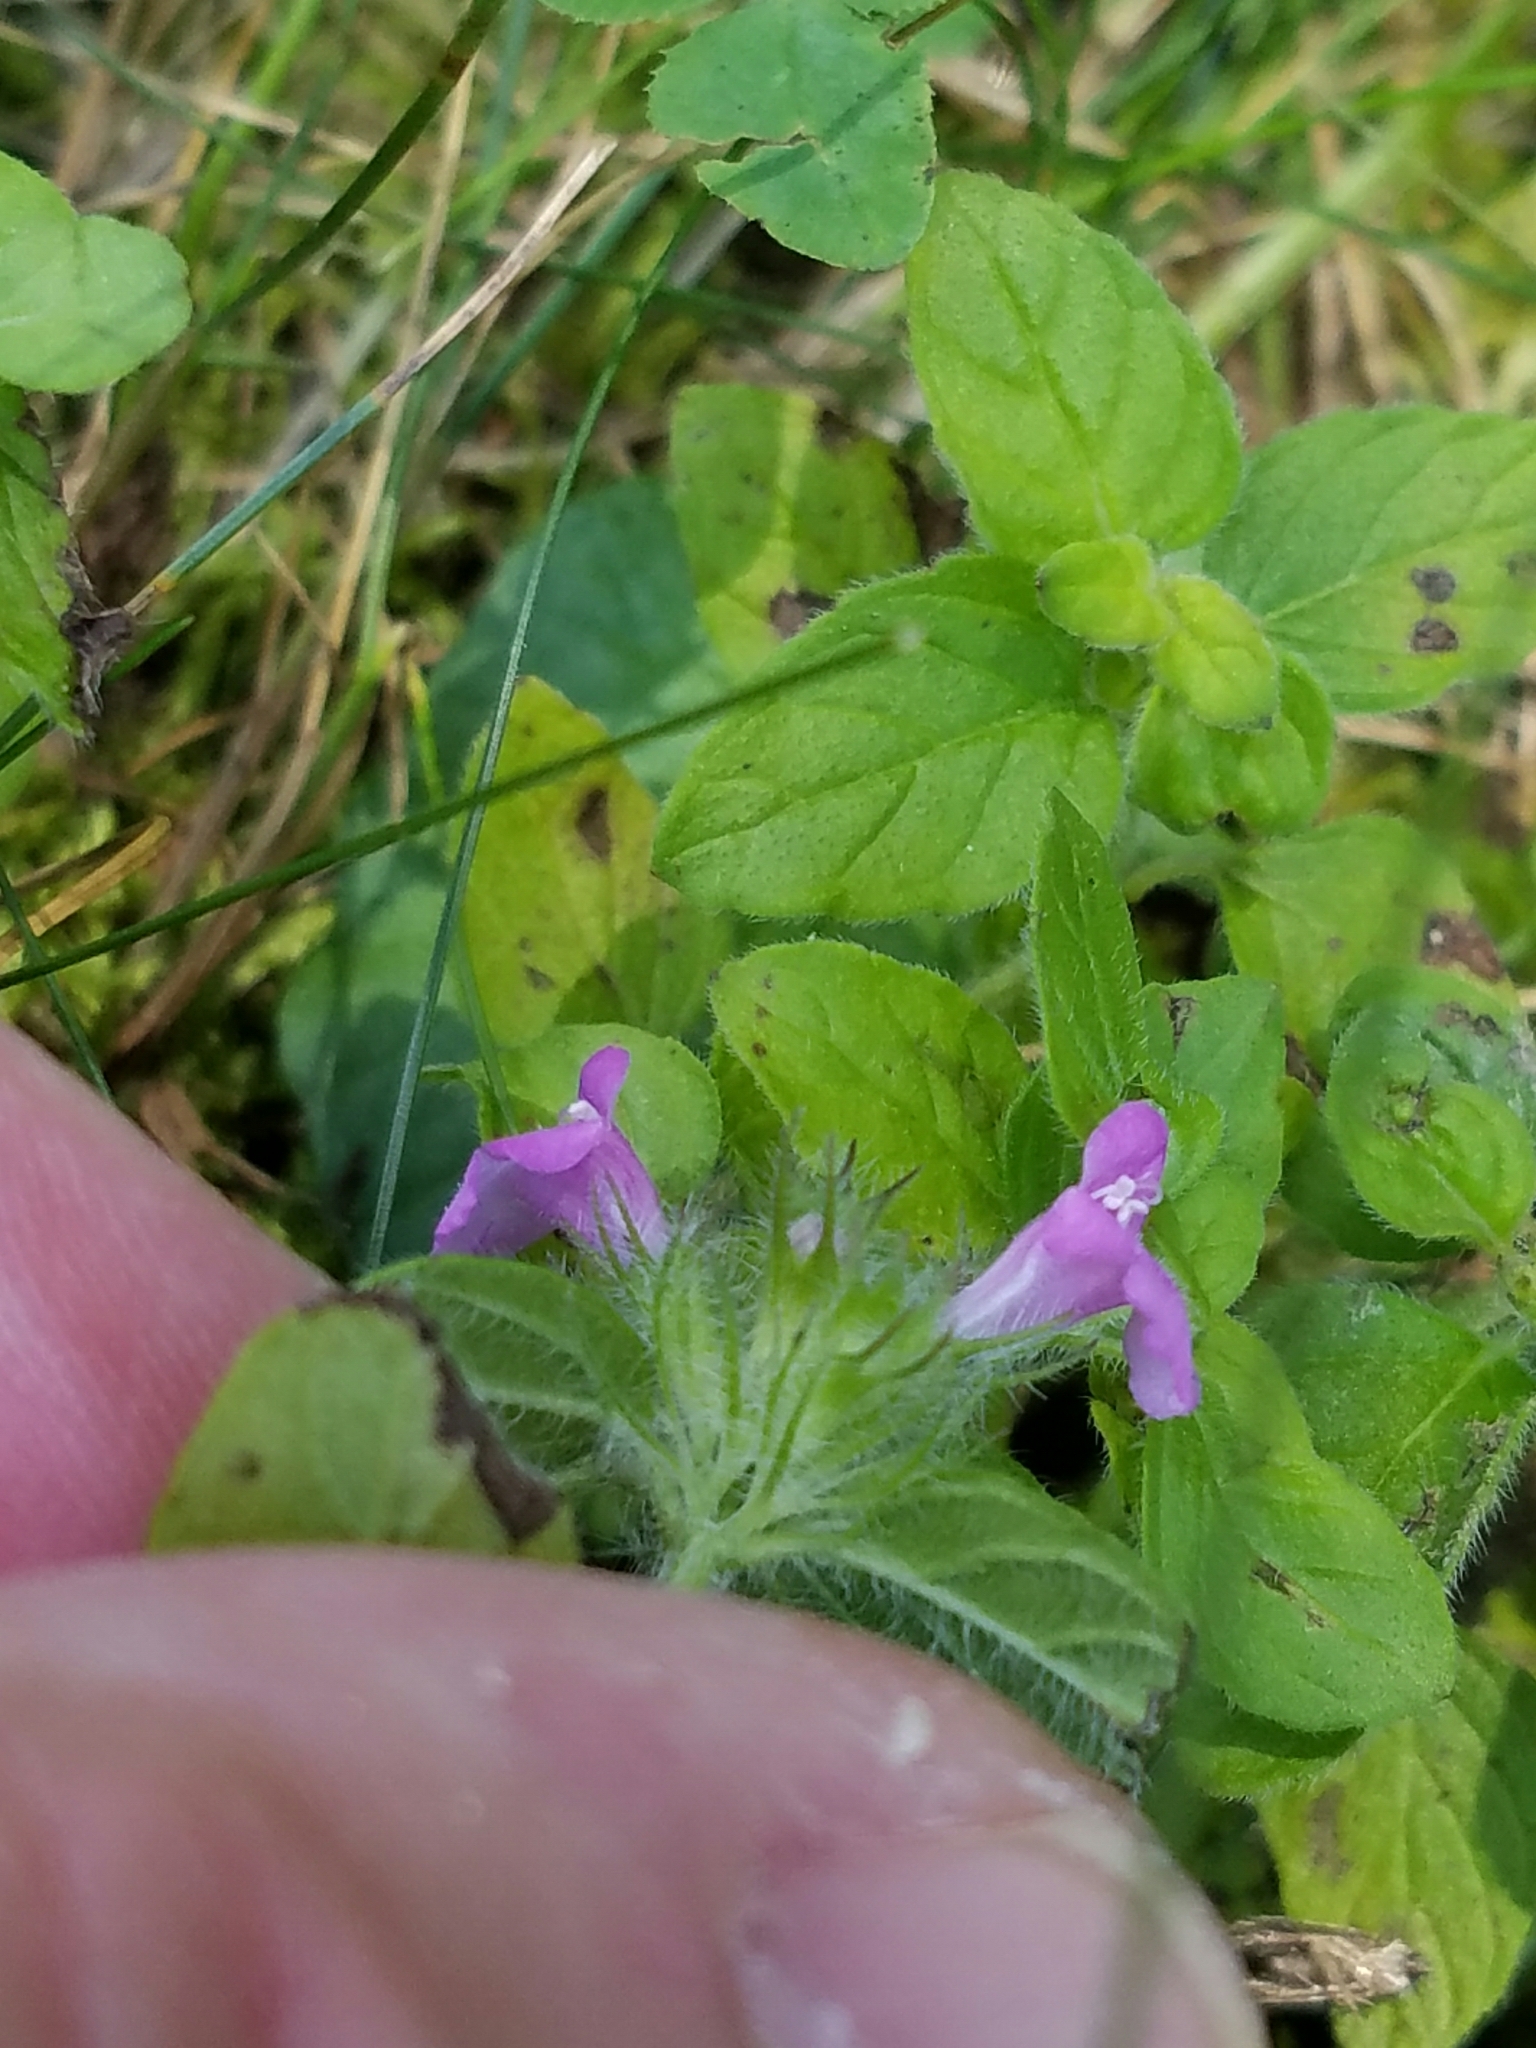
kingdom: Plantae
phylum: Tracheophyta
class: Magnoliopsida
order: Lamiales
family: Lamiaceae
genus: Clinopodium
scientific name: Clinopodium vulgare
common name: Wild basil
